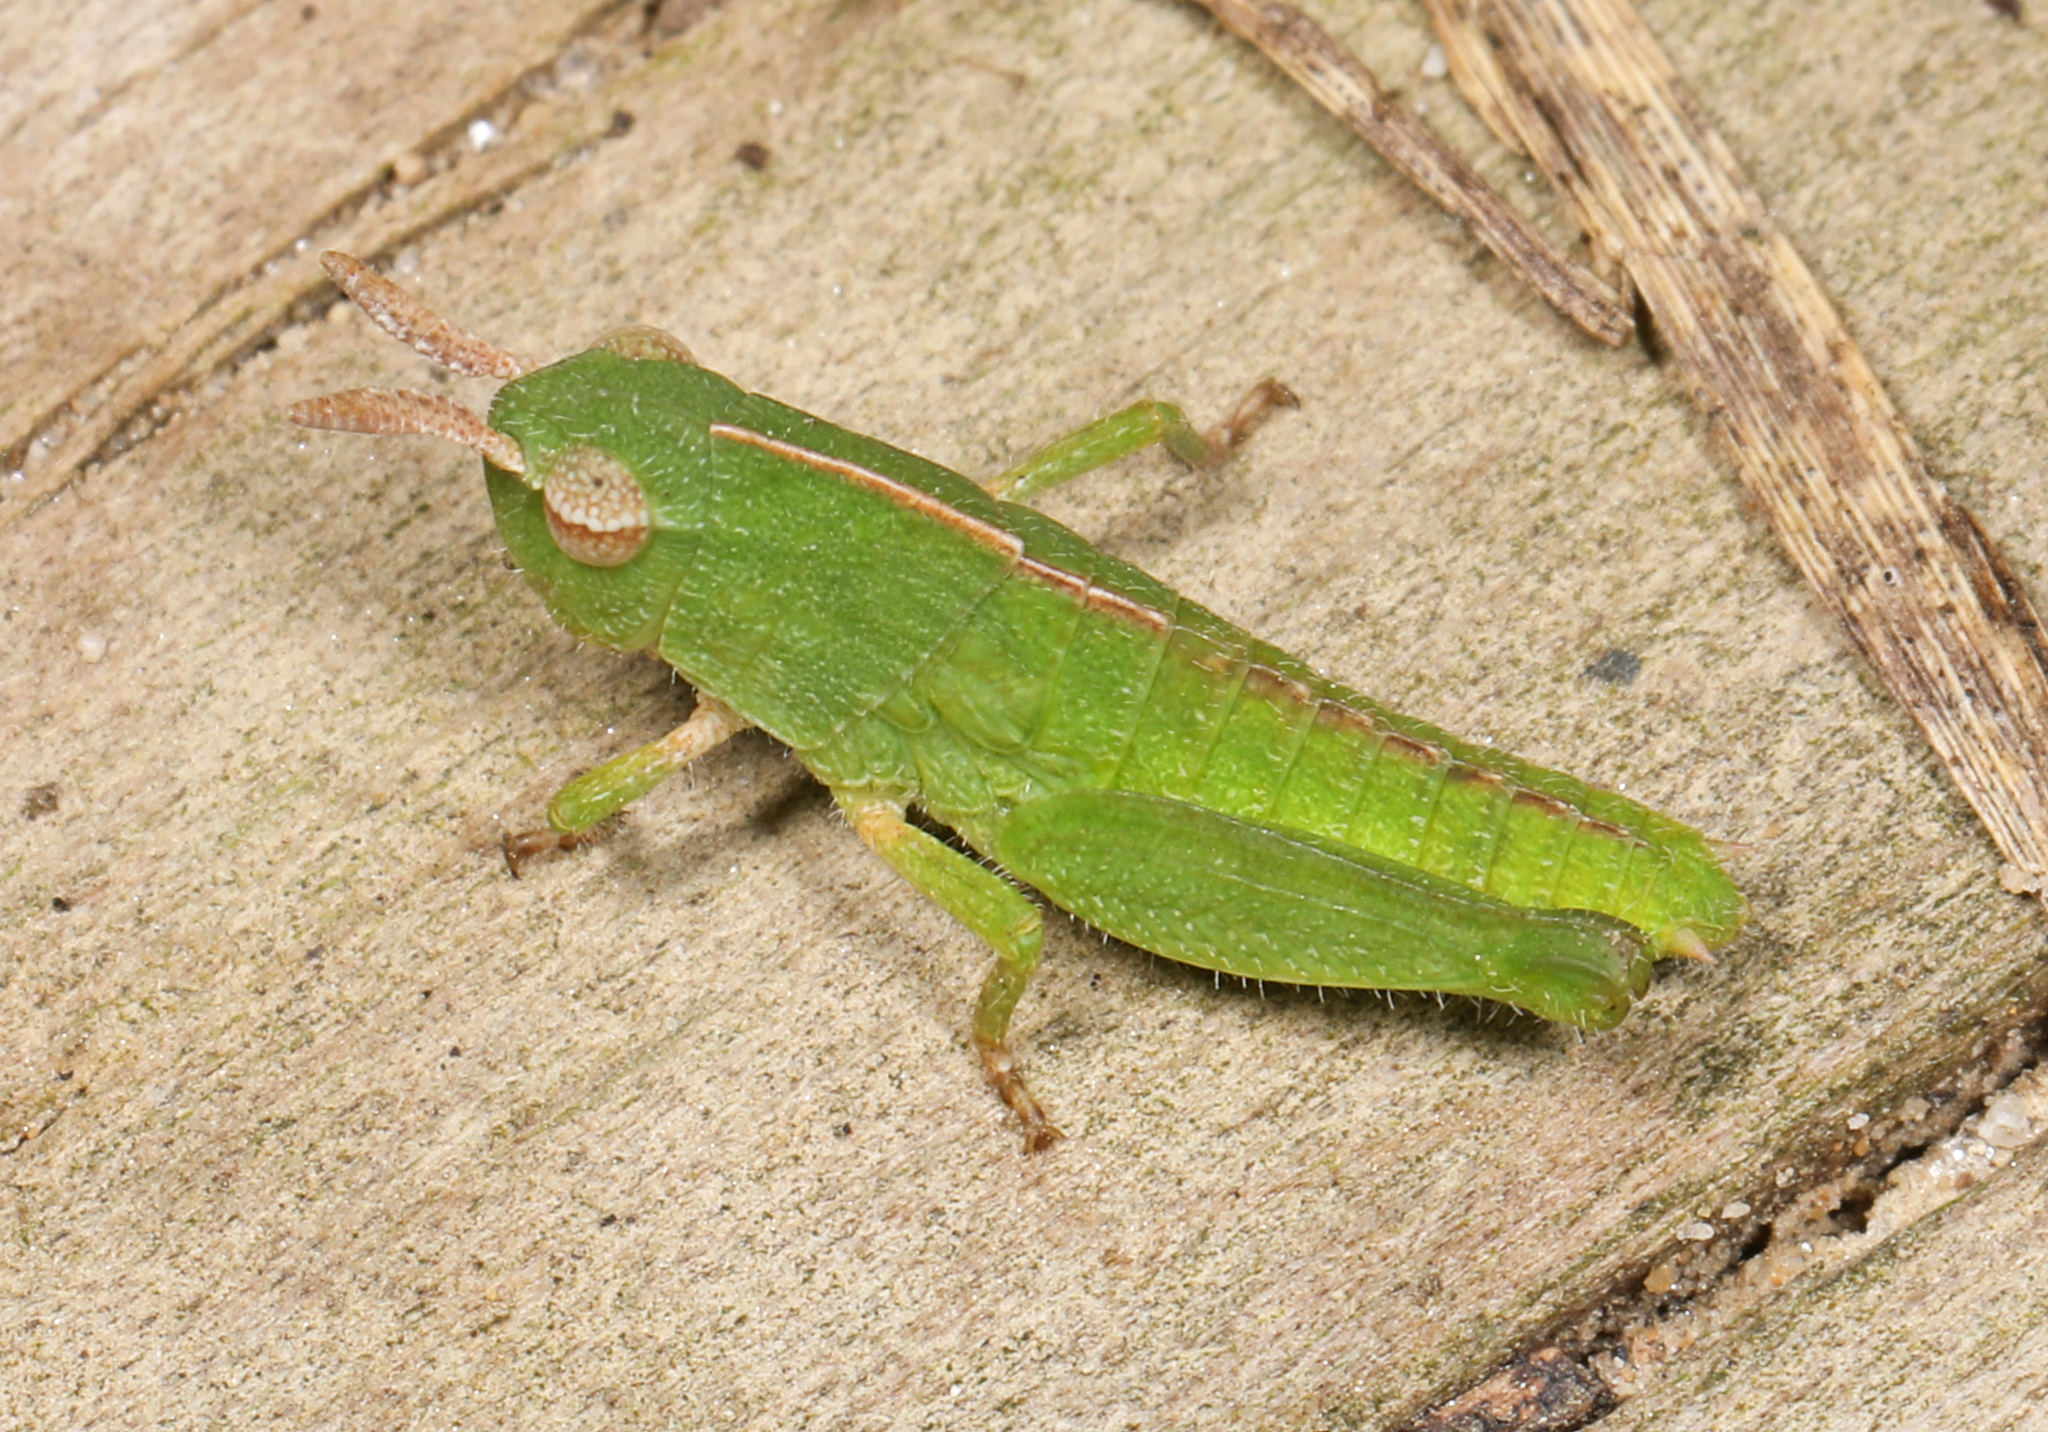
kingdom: Animalia
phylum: Arthropoda
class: Insecta
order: Orthoptera
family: Acrididae
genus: Chortophaga
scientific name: Chortophaga viridifasciata
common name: Green-striped grasshopper
